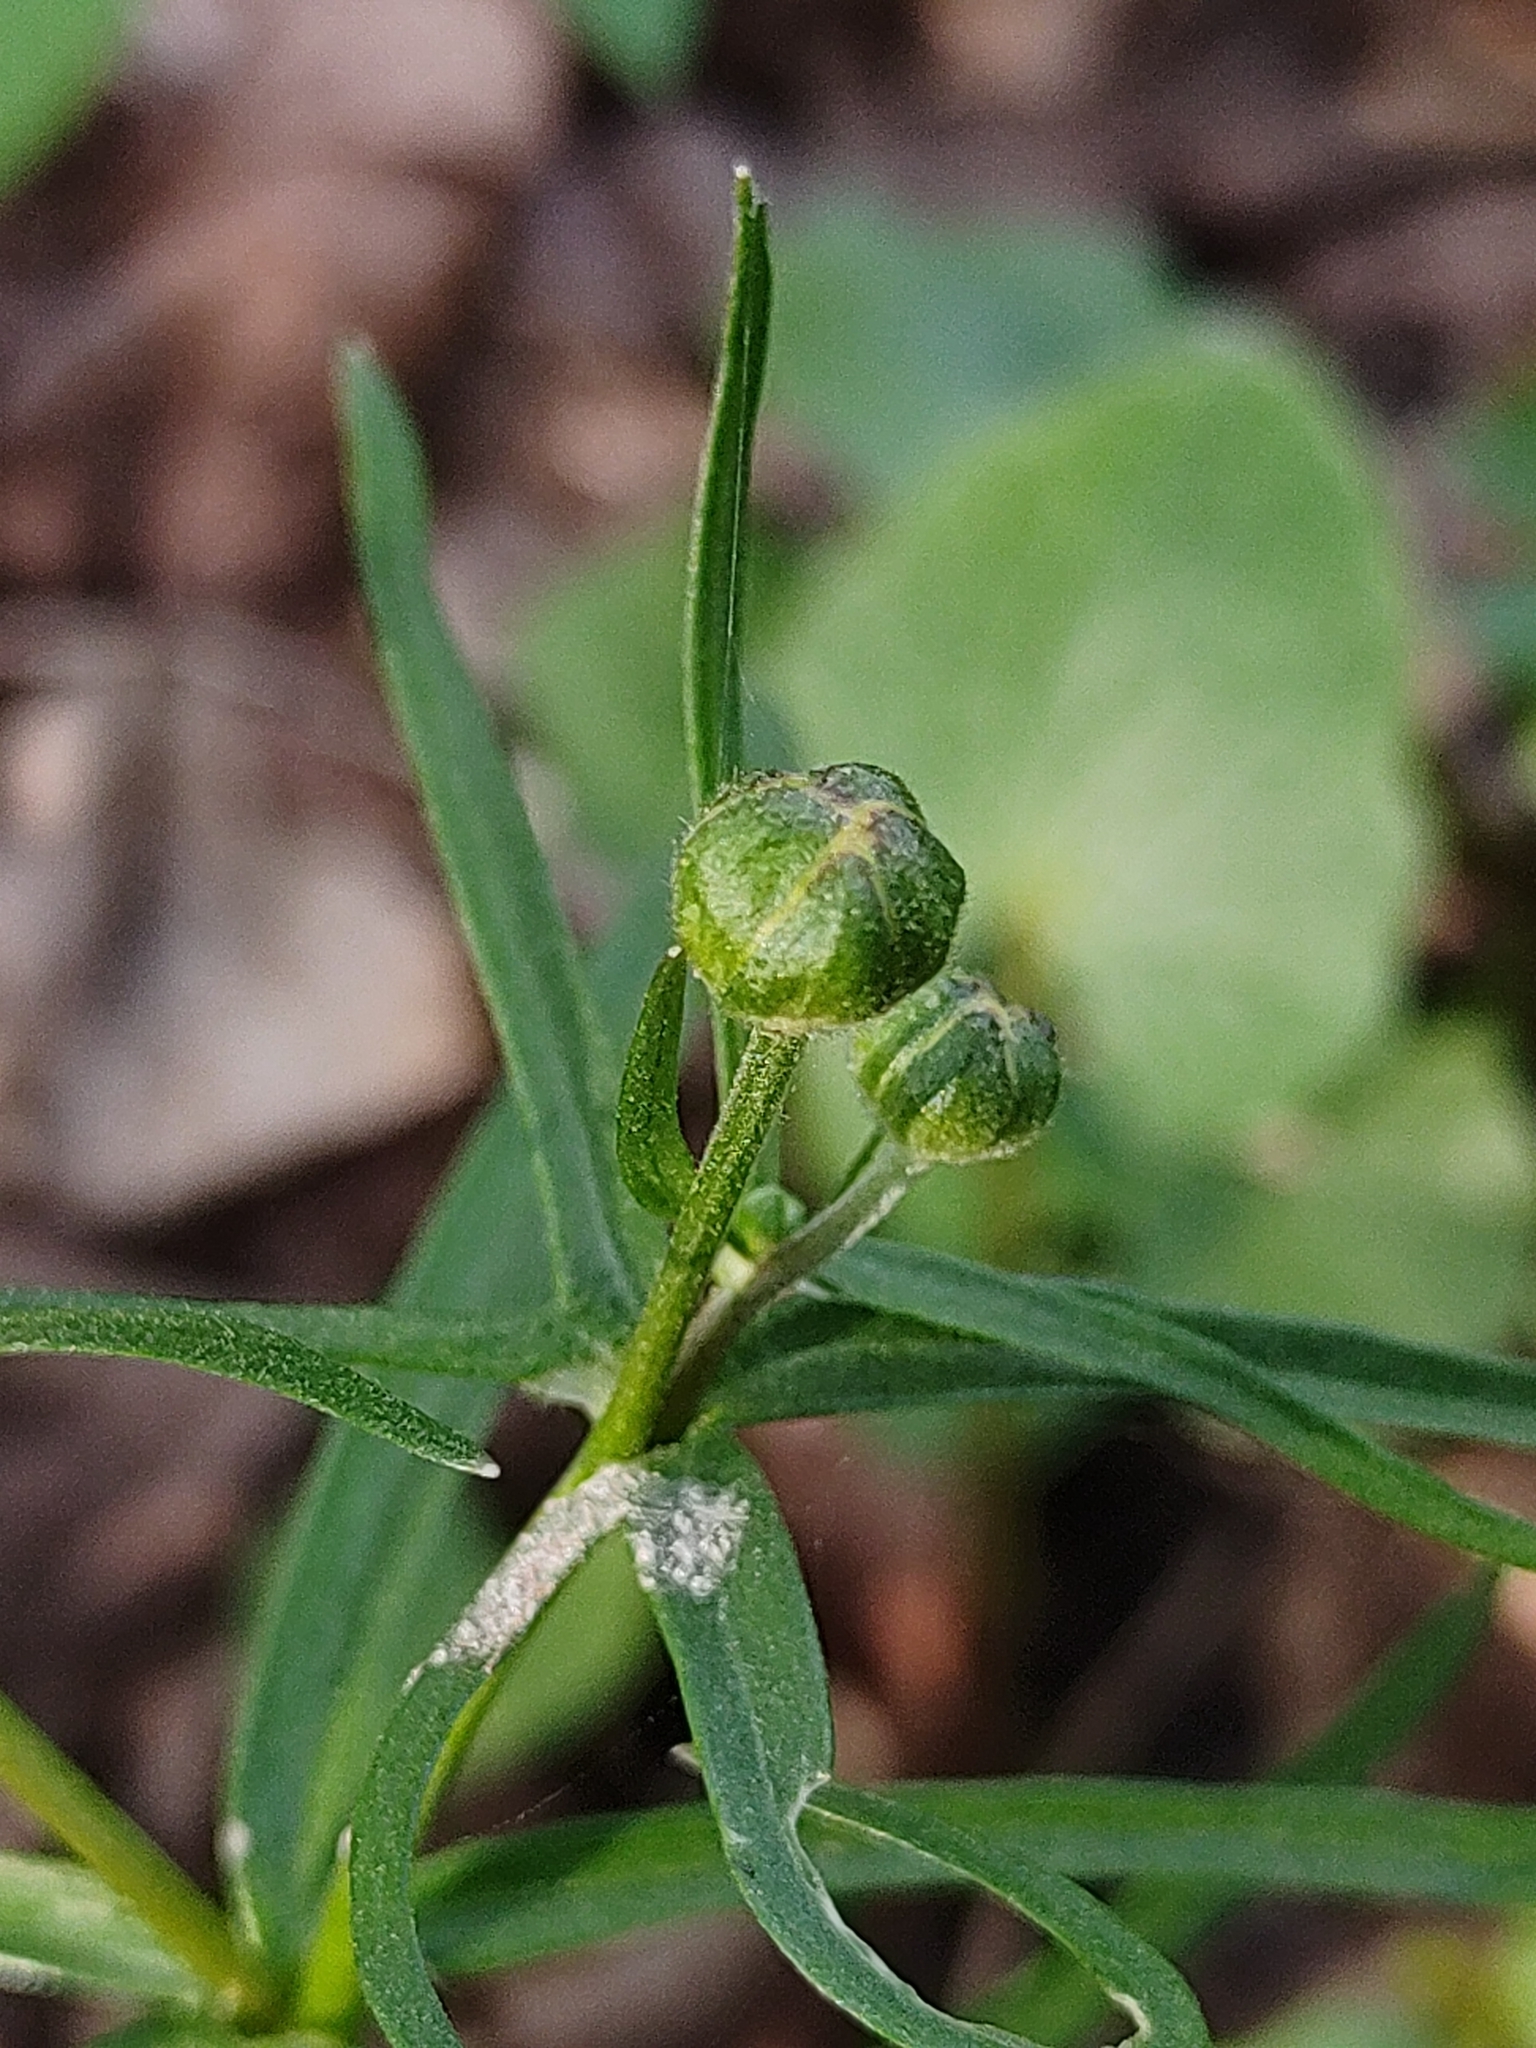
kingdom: Plantae
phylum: Tracheophyta
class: Magnoliopsida
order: Ranunculales
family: Ranunculaceae
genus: Ranunculus
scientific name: Ranunculus auricomus
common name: Goldilocks buttercup
